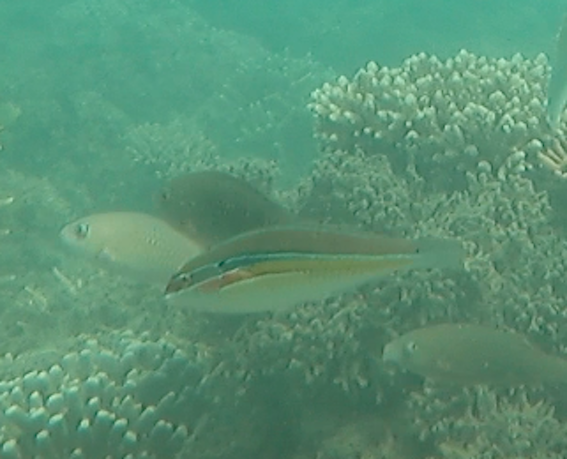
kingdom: Animalia
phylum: Chordata
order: Perciformes
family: Labridae
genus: Stethojulis
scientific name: Stethojulis strigiventer
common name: Three-ribbon wrasse
